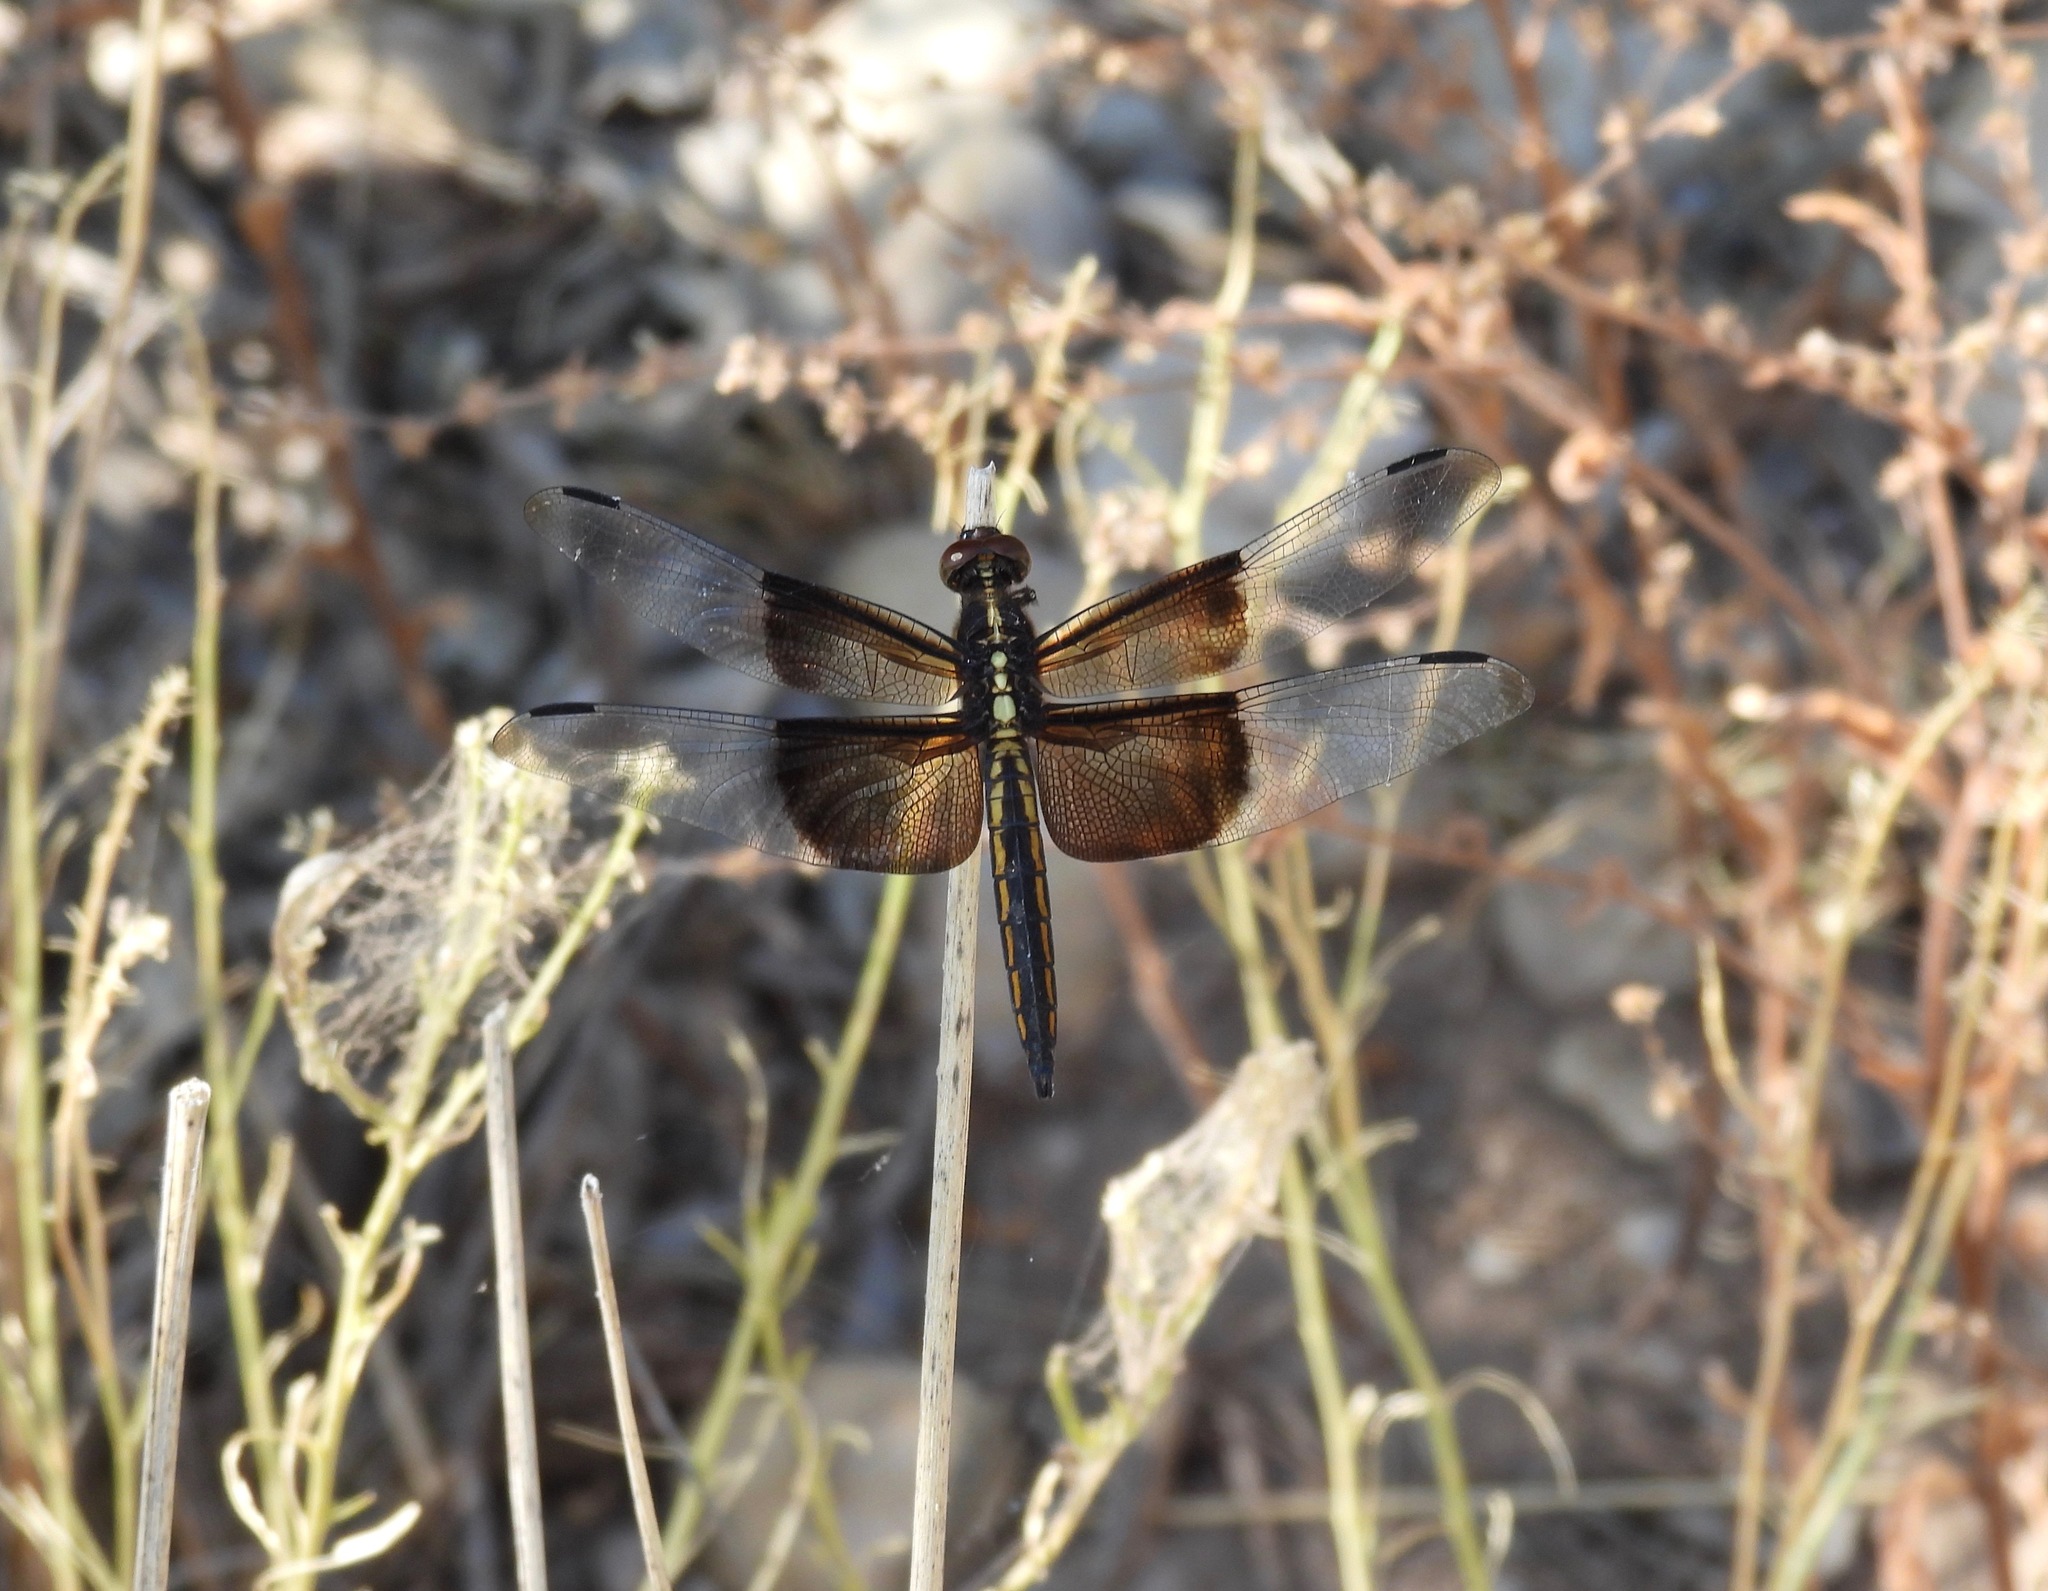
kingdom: Animalia
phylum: Arthropoda
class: Insecta
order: Odonata
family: Libellulidae
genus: Libellula
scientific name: Libellula luctuosa
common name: Widow skimmer
